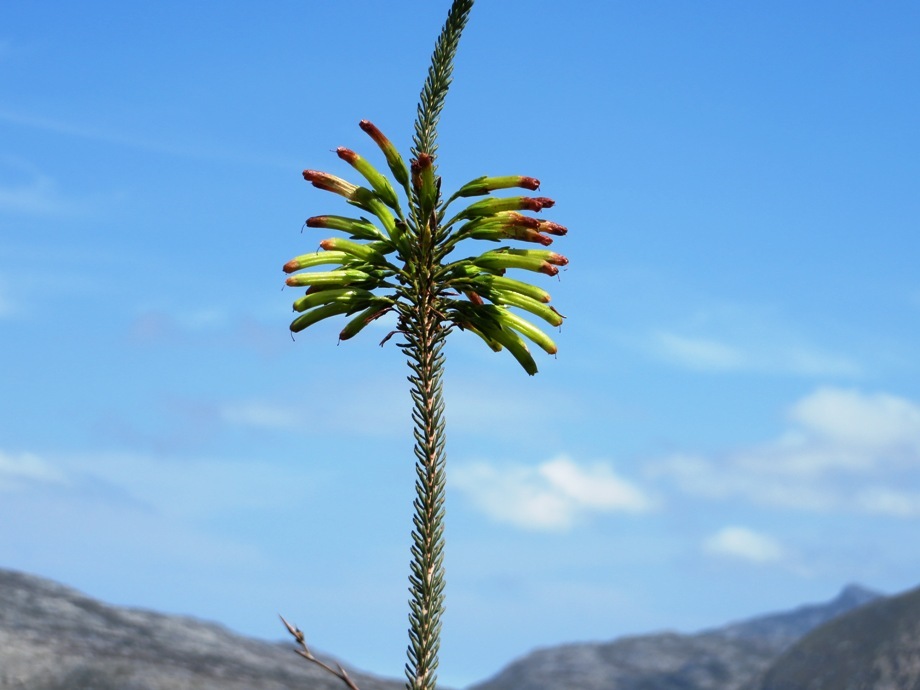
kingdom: Plantae
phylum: Tracheophyta
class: Magnoliopsida
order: Ericales
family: Ericaceae
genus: Erica
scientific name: Erica thomae
